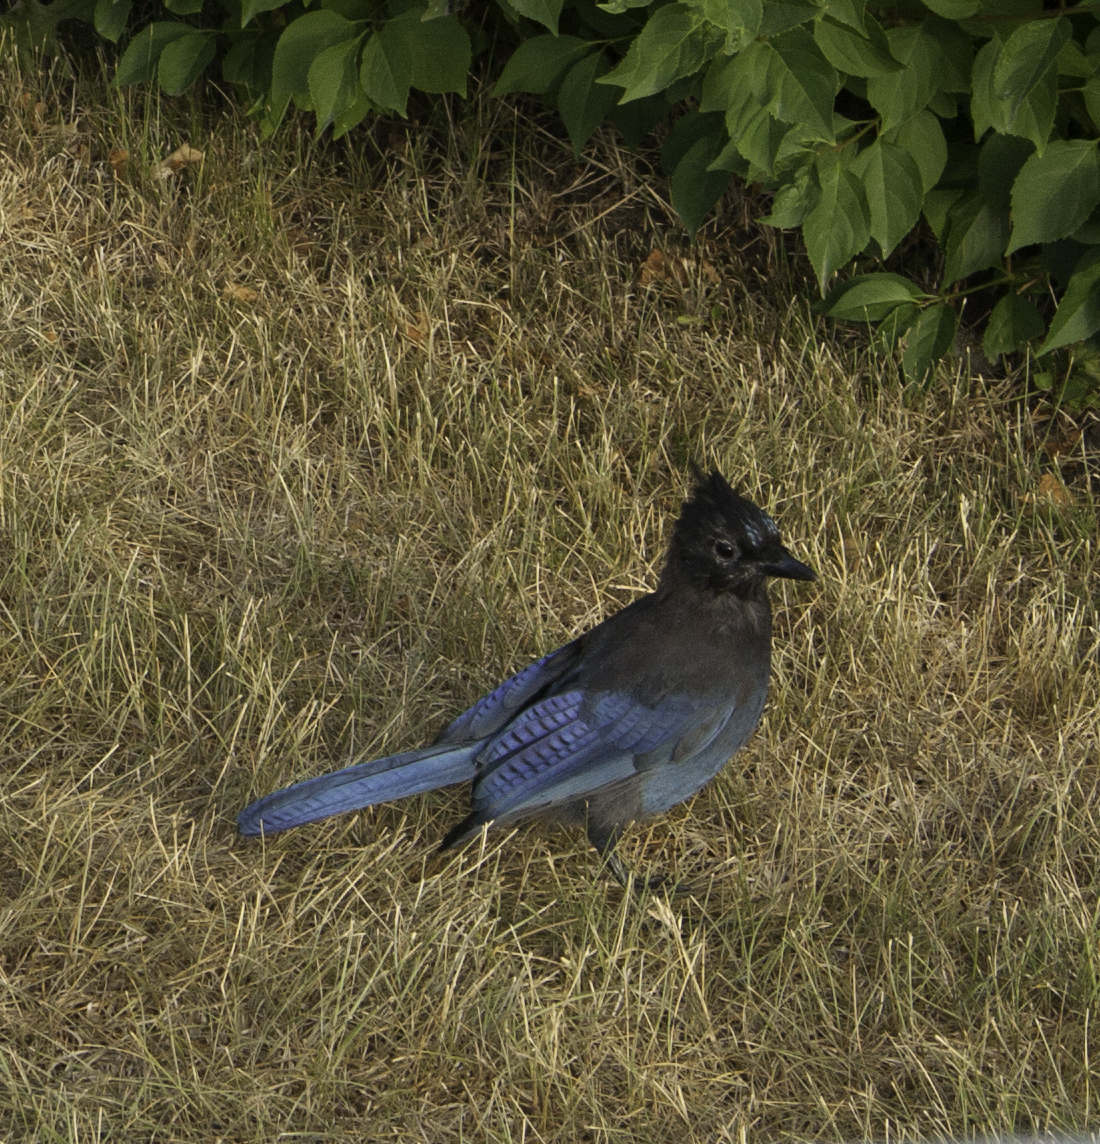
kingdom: Animalia
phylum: Chordata
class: Aves
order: Passeriformes
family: Corvidae
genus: Cyanocitta
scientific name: Cyanocitta stelleri
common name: Steller's jay
